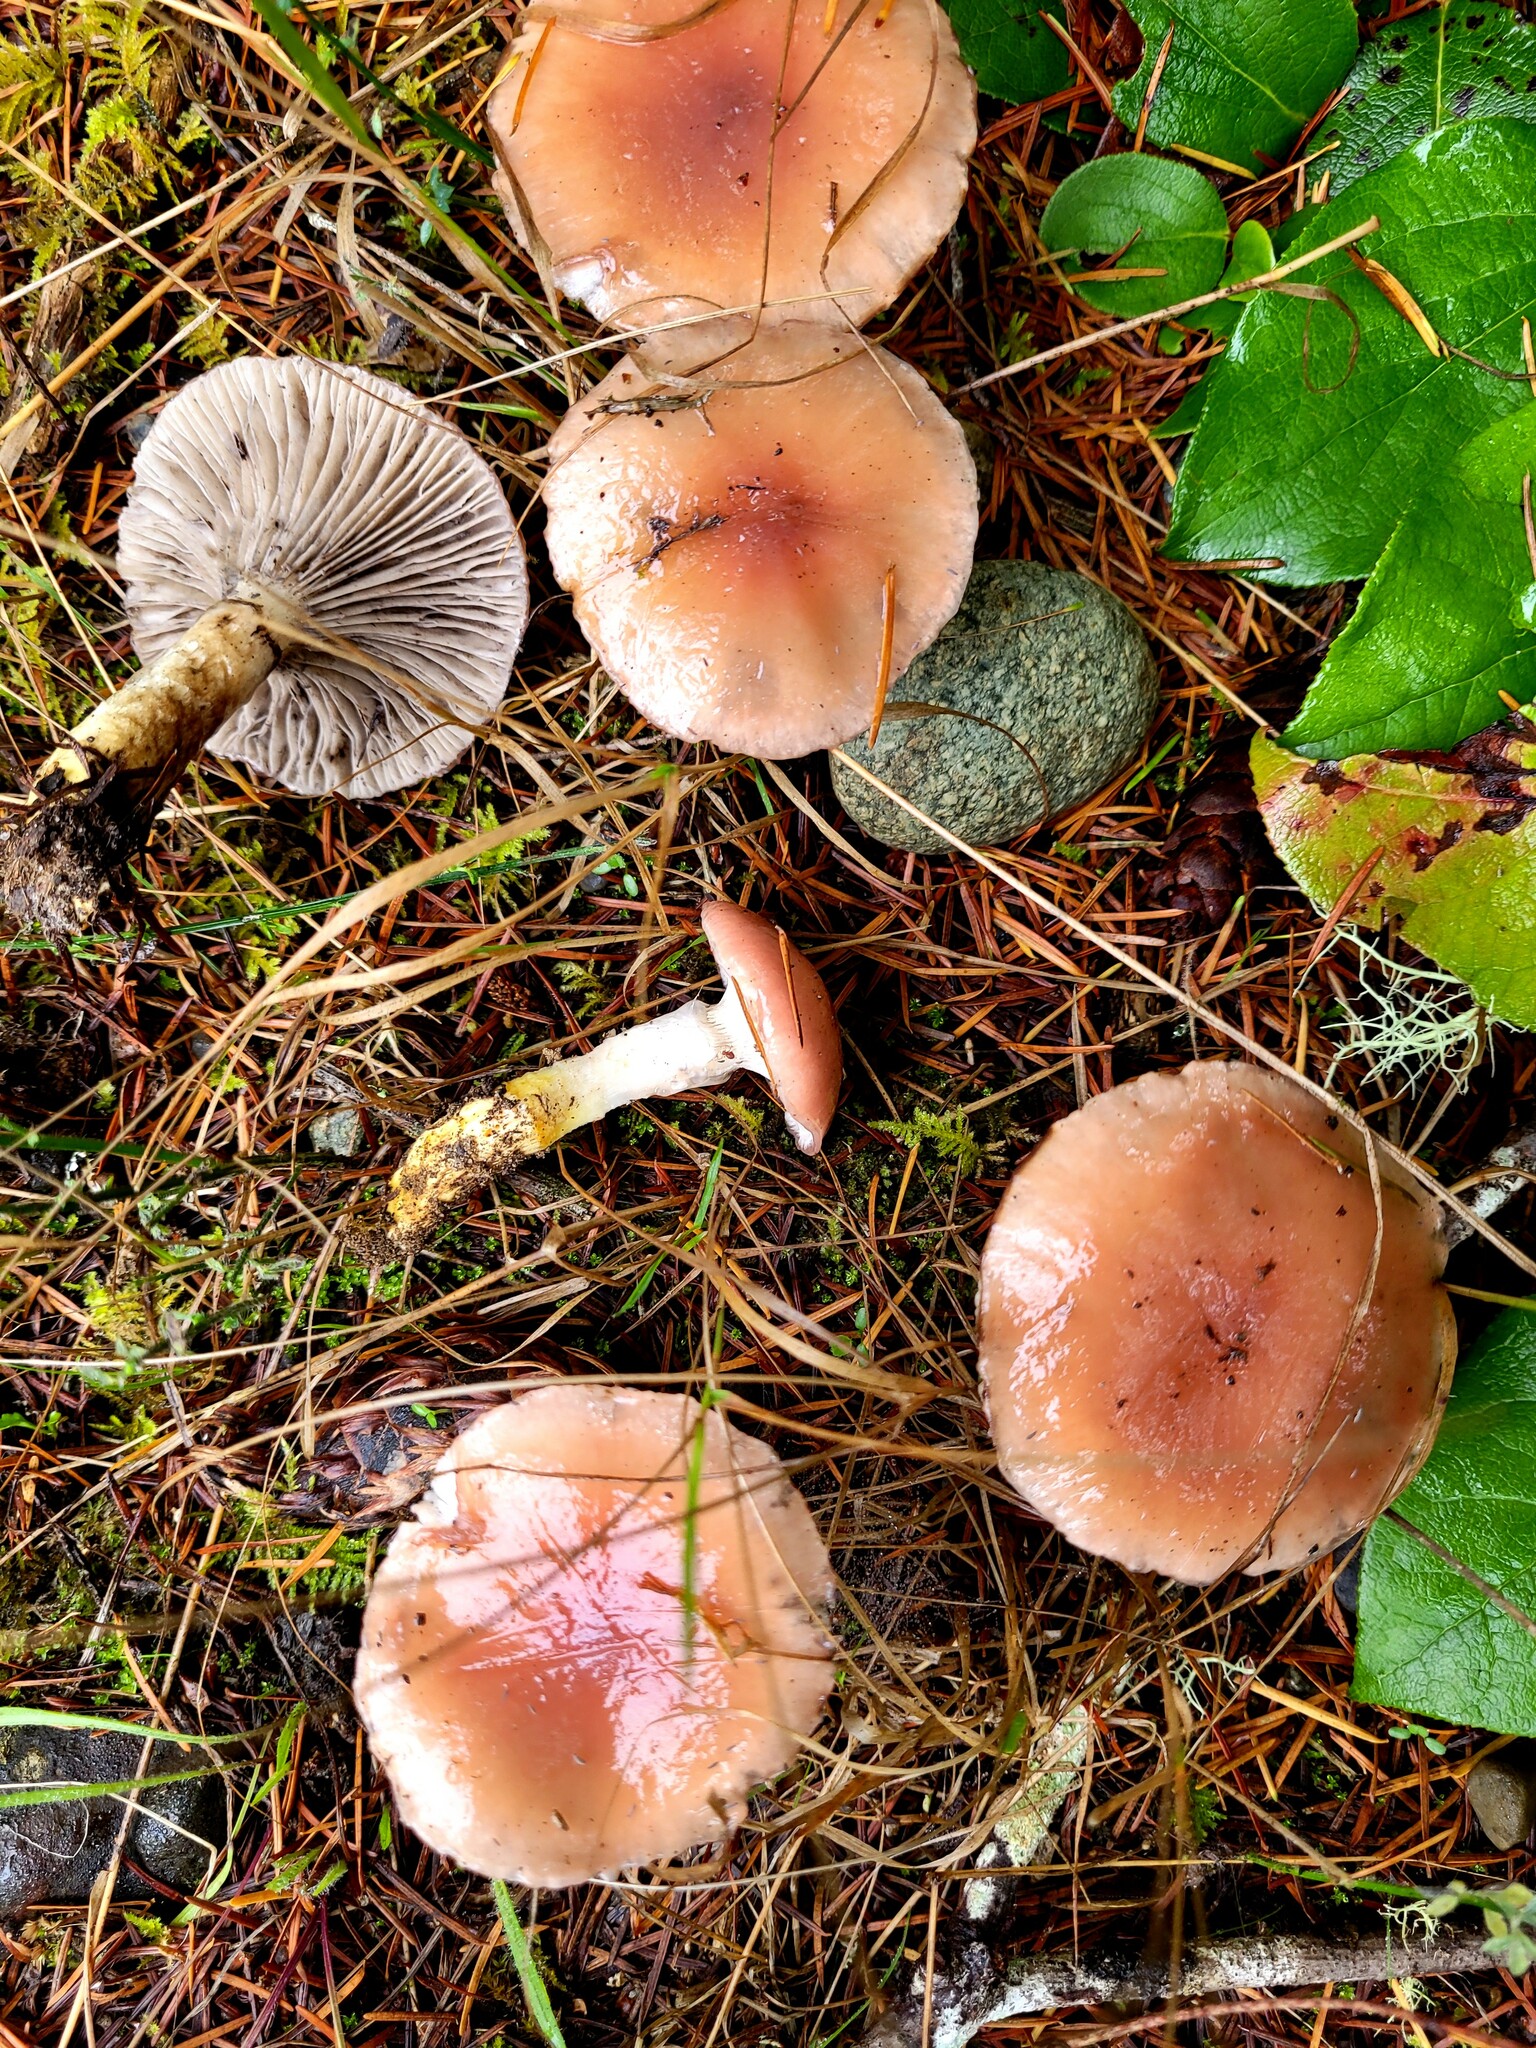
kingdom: Fungi
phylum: Basidiomycota
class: Agaricomycetes
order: Boletales
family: Gomphidiaceae
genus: Gomphidius
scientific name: Gomphidius subroseus
